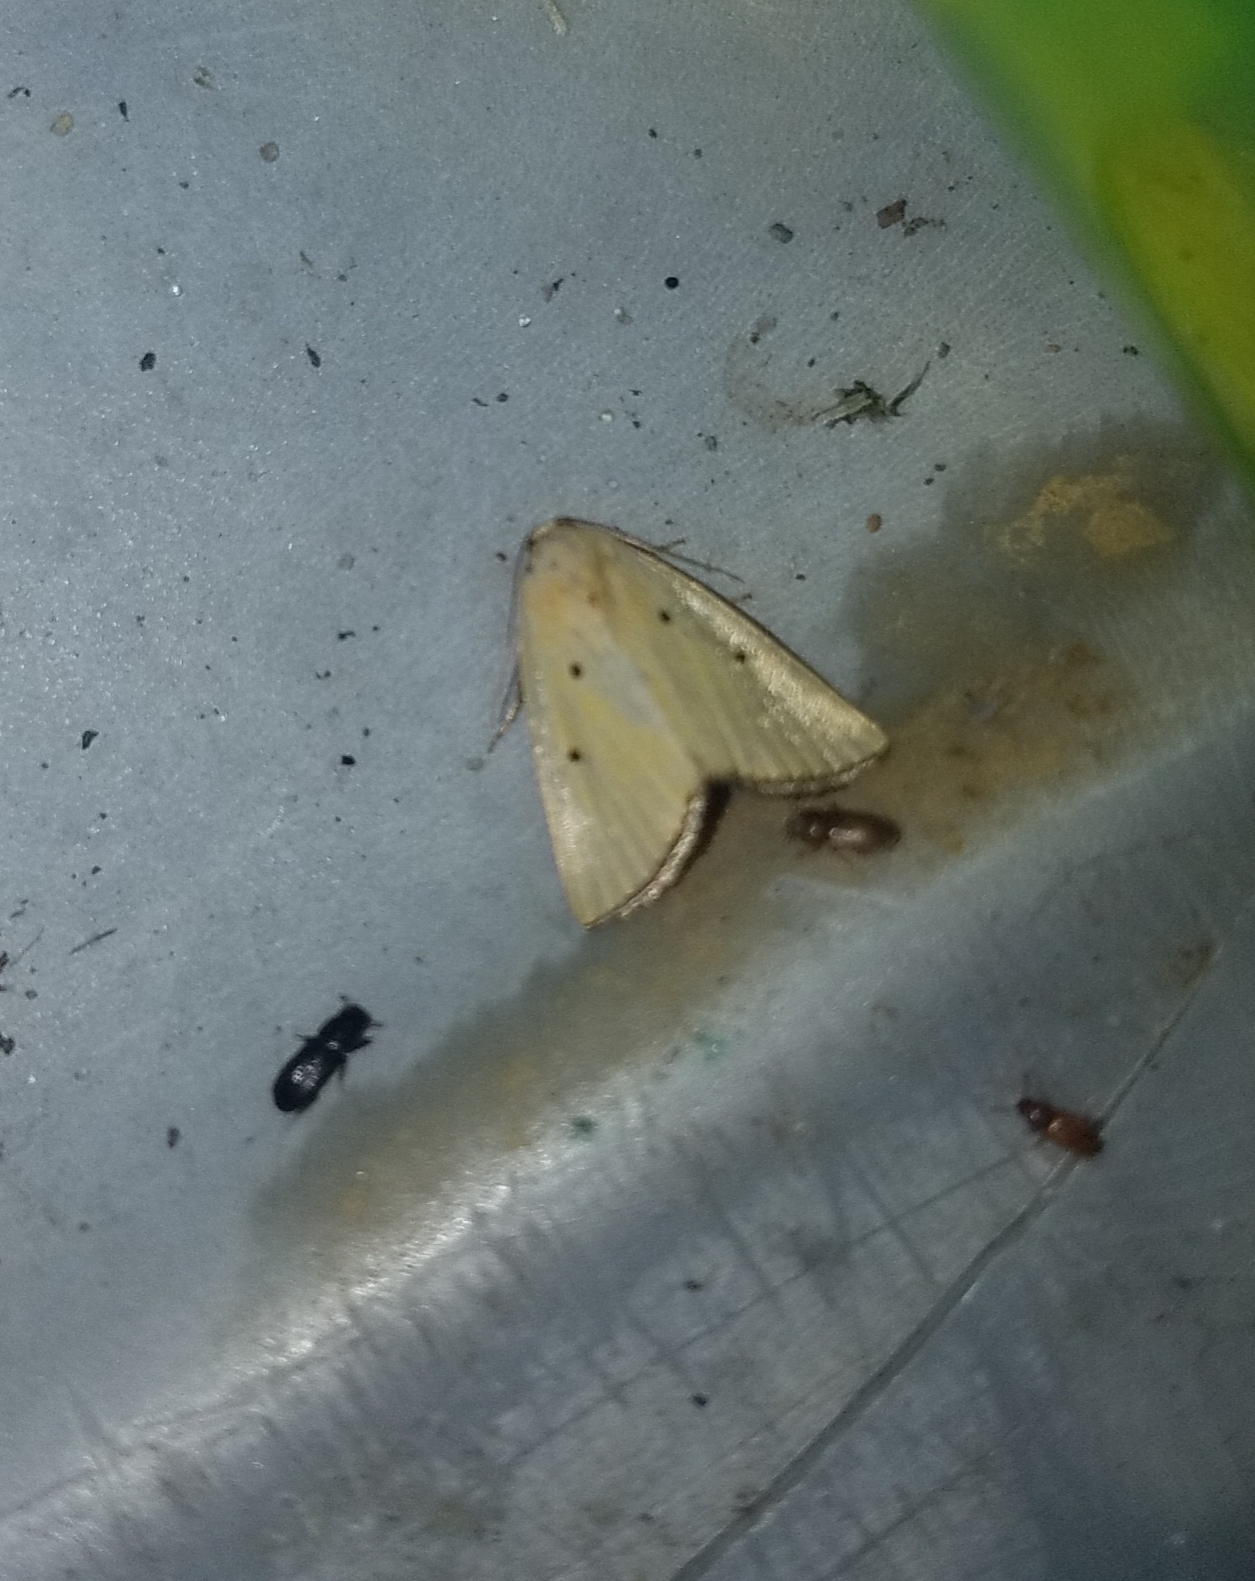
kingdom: Animalia
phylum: Arthropoda
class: Insecta
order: Lepidoptera
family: Noctuidae
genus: Marimatha
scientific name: Marimatha nigrofimbria
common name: Black-bordered lemon moth
